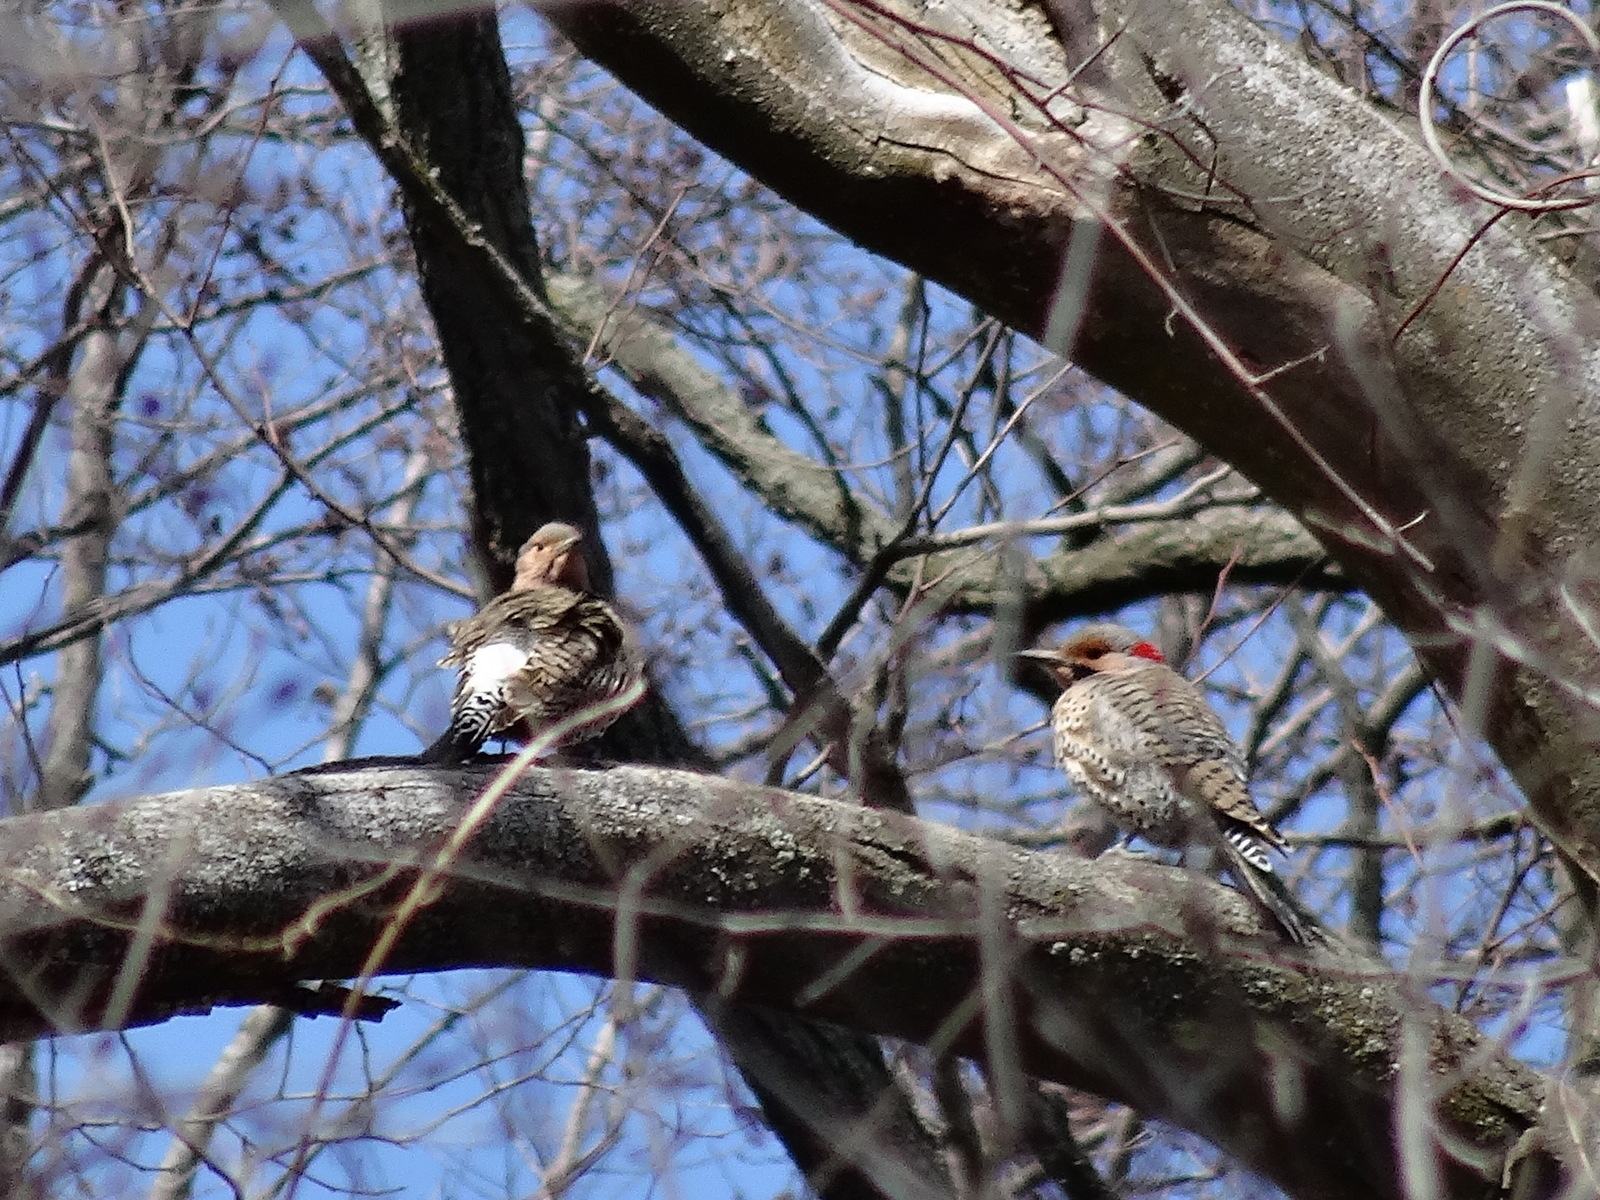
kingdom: Animalia
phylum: Chordata
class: Aves
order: Piciformes
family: Picidae
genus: Colaptes
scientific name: Colaptes auratus
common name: Northern flicker
